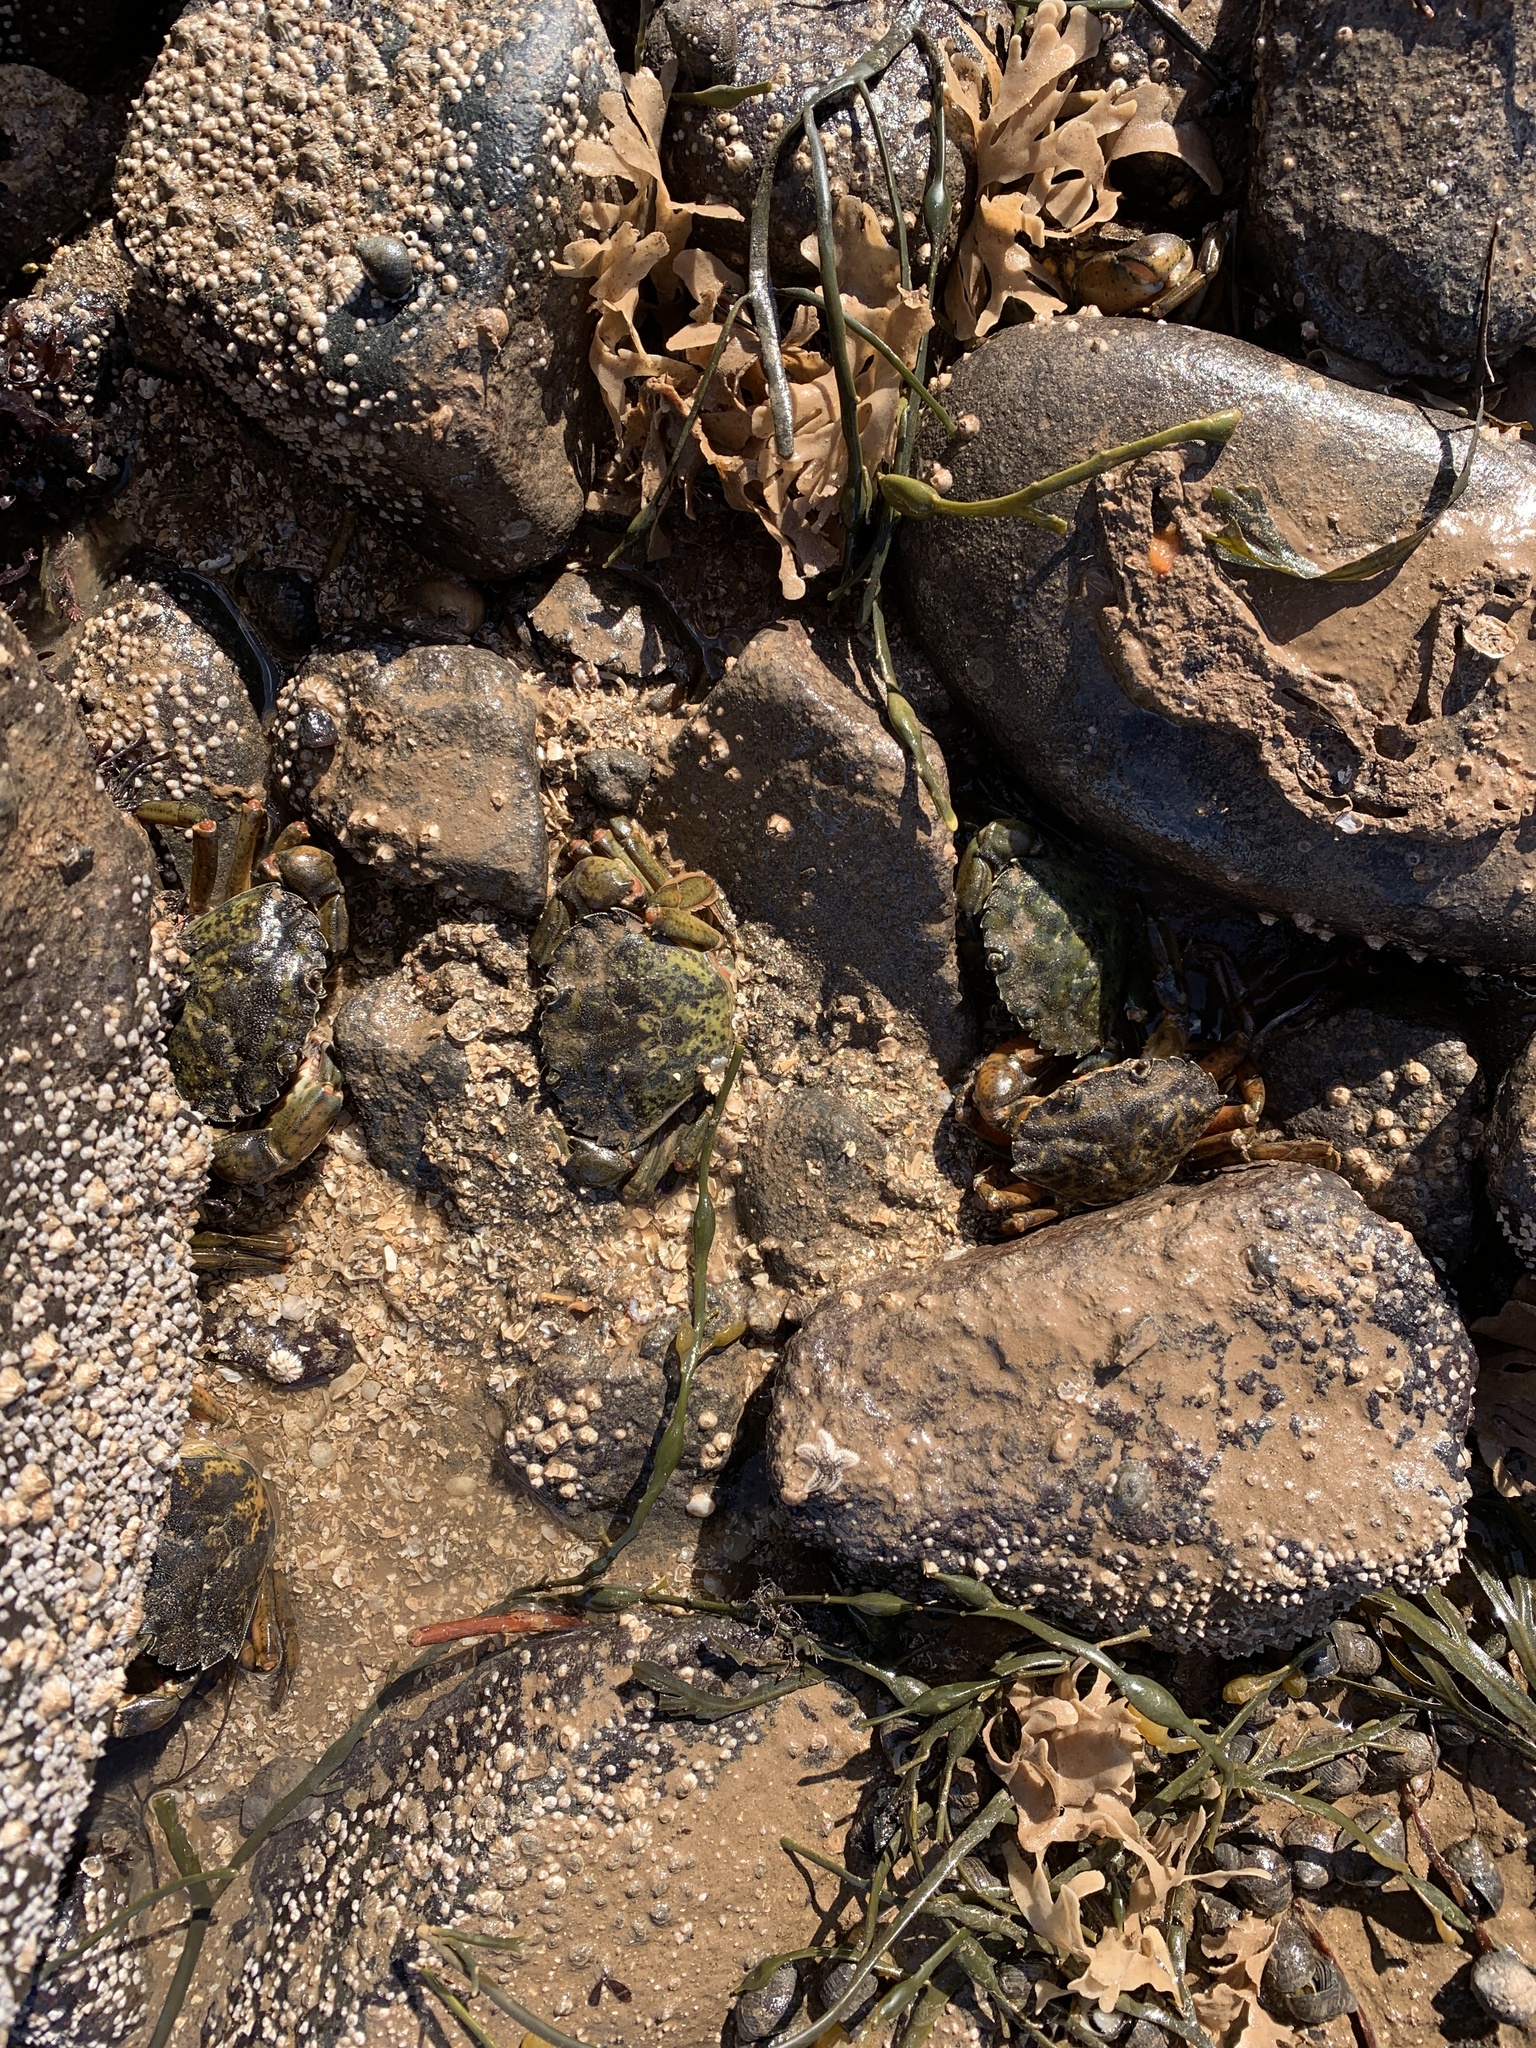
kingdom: Animalia
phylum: Arthropoda
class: Malacostraca
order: Decapoda
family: Carcinidae
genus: Carcinus
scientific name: Carcinus maenas
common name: European green crab
